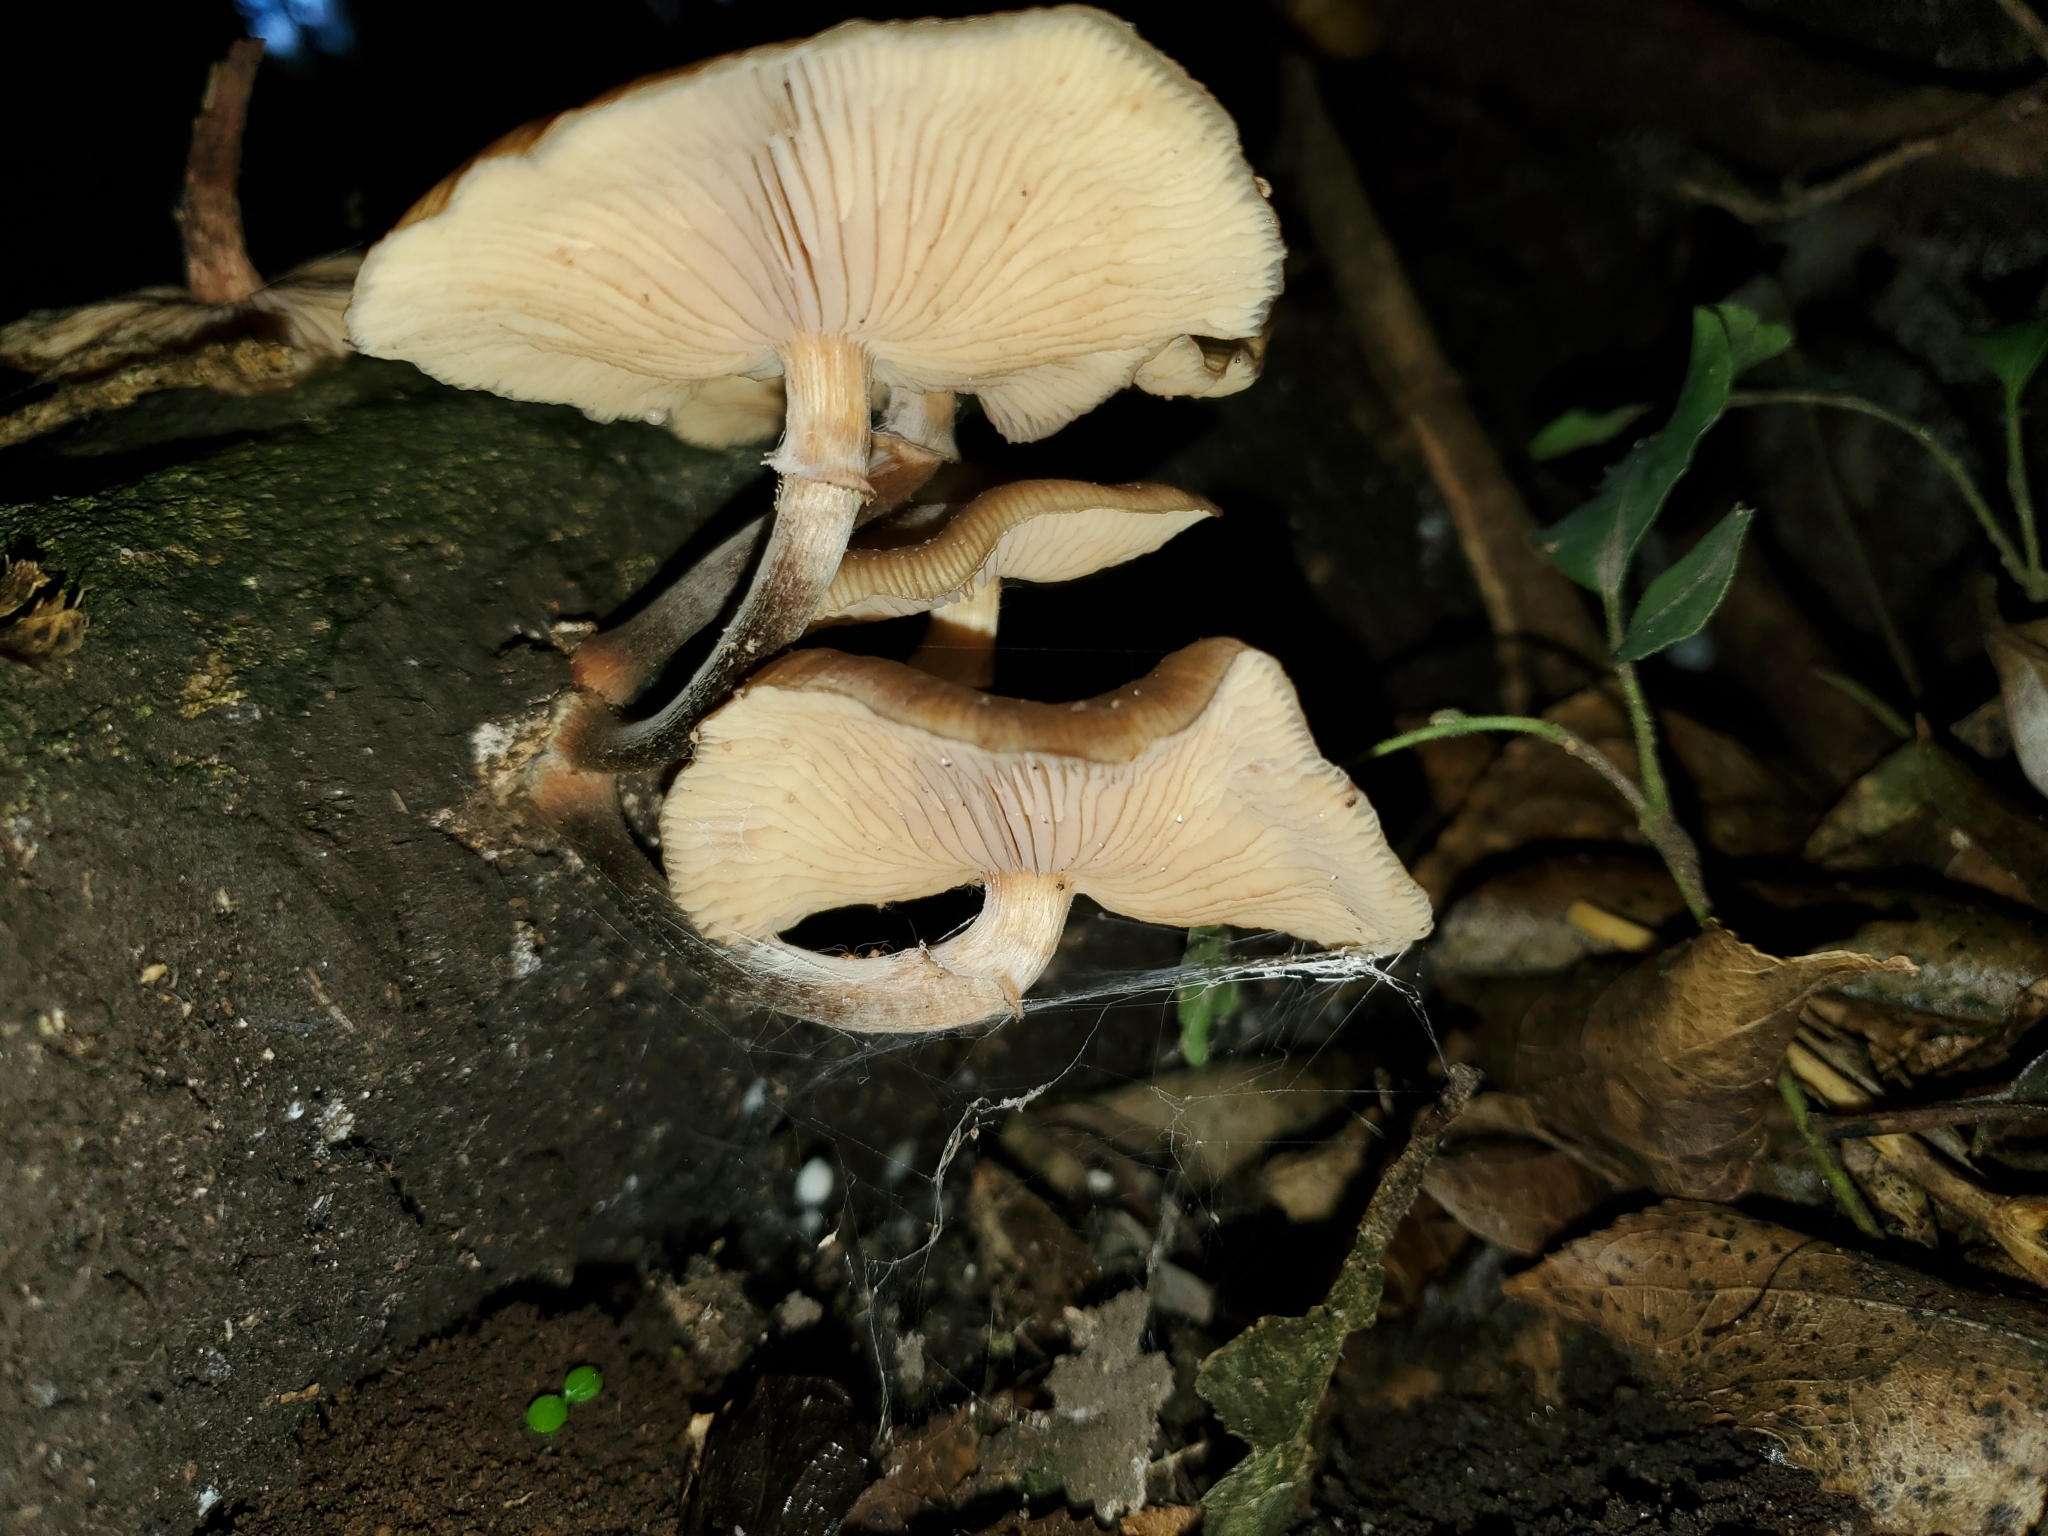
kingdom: Fungi
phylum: Basidiomycota
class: Agaricomycetes
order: Agaricales
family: Physalacriaceae
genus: Armillaria
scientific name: Armillaria novae-zelandiae
